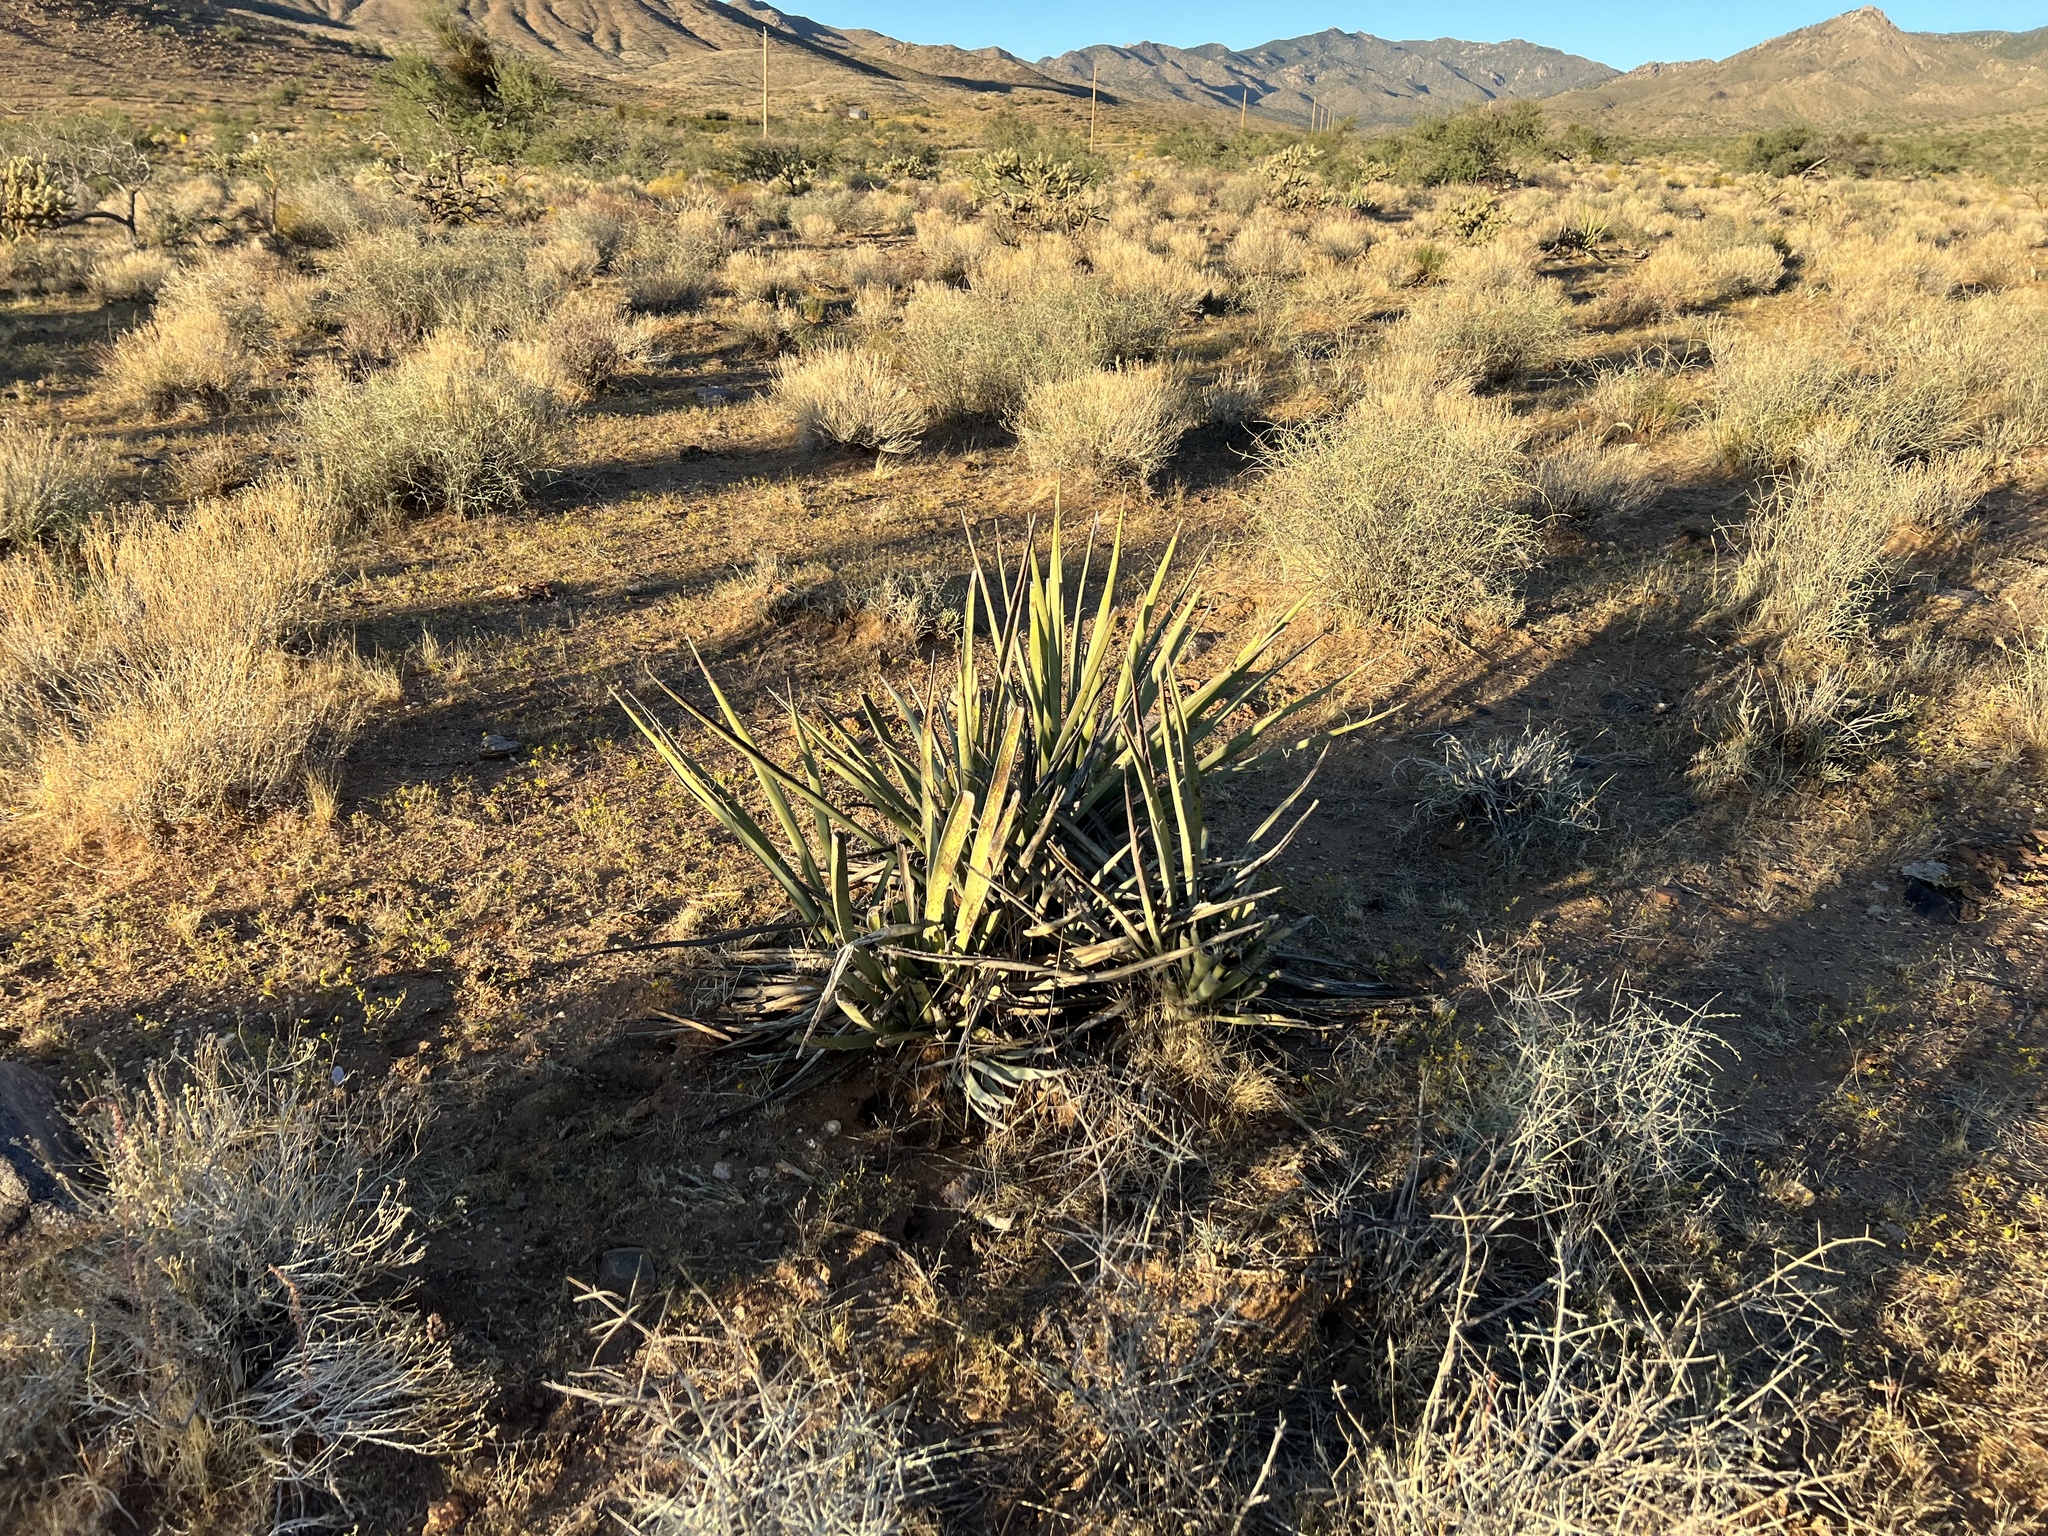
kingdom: Plantae
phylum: Tracheophyta
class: Liliopsida
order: Asparagales
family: Asparagaceae
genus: Yucca
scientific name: Yucca schidigera
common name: Mojave yucca
